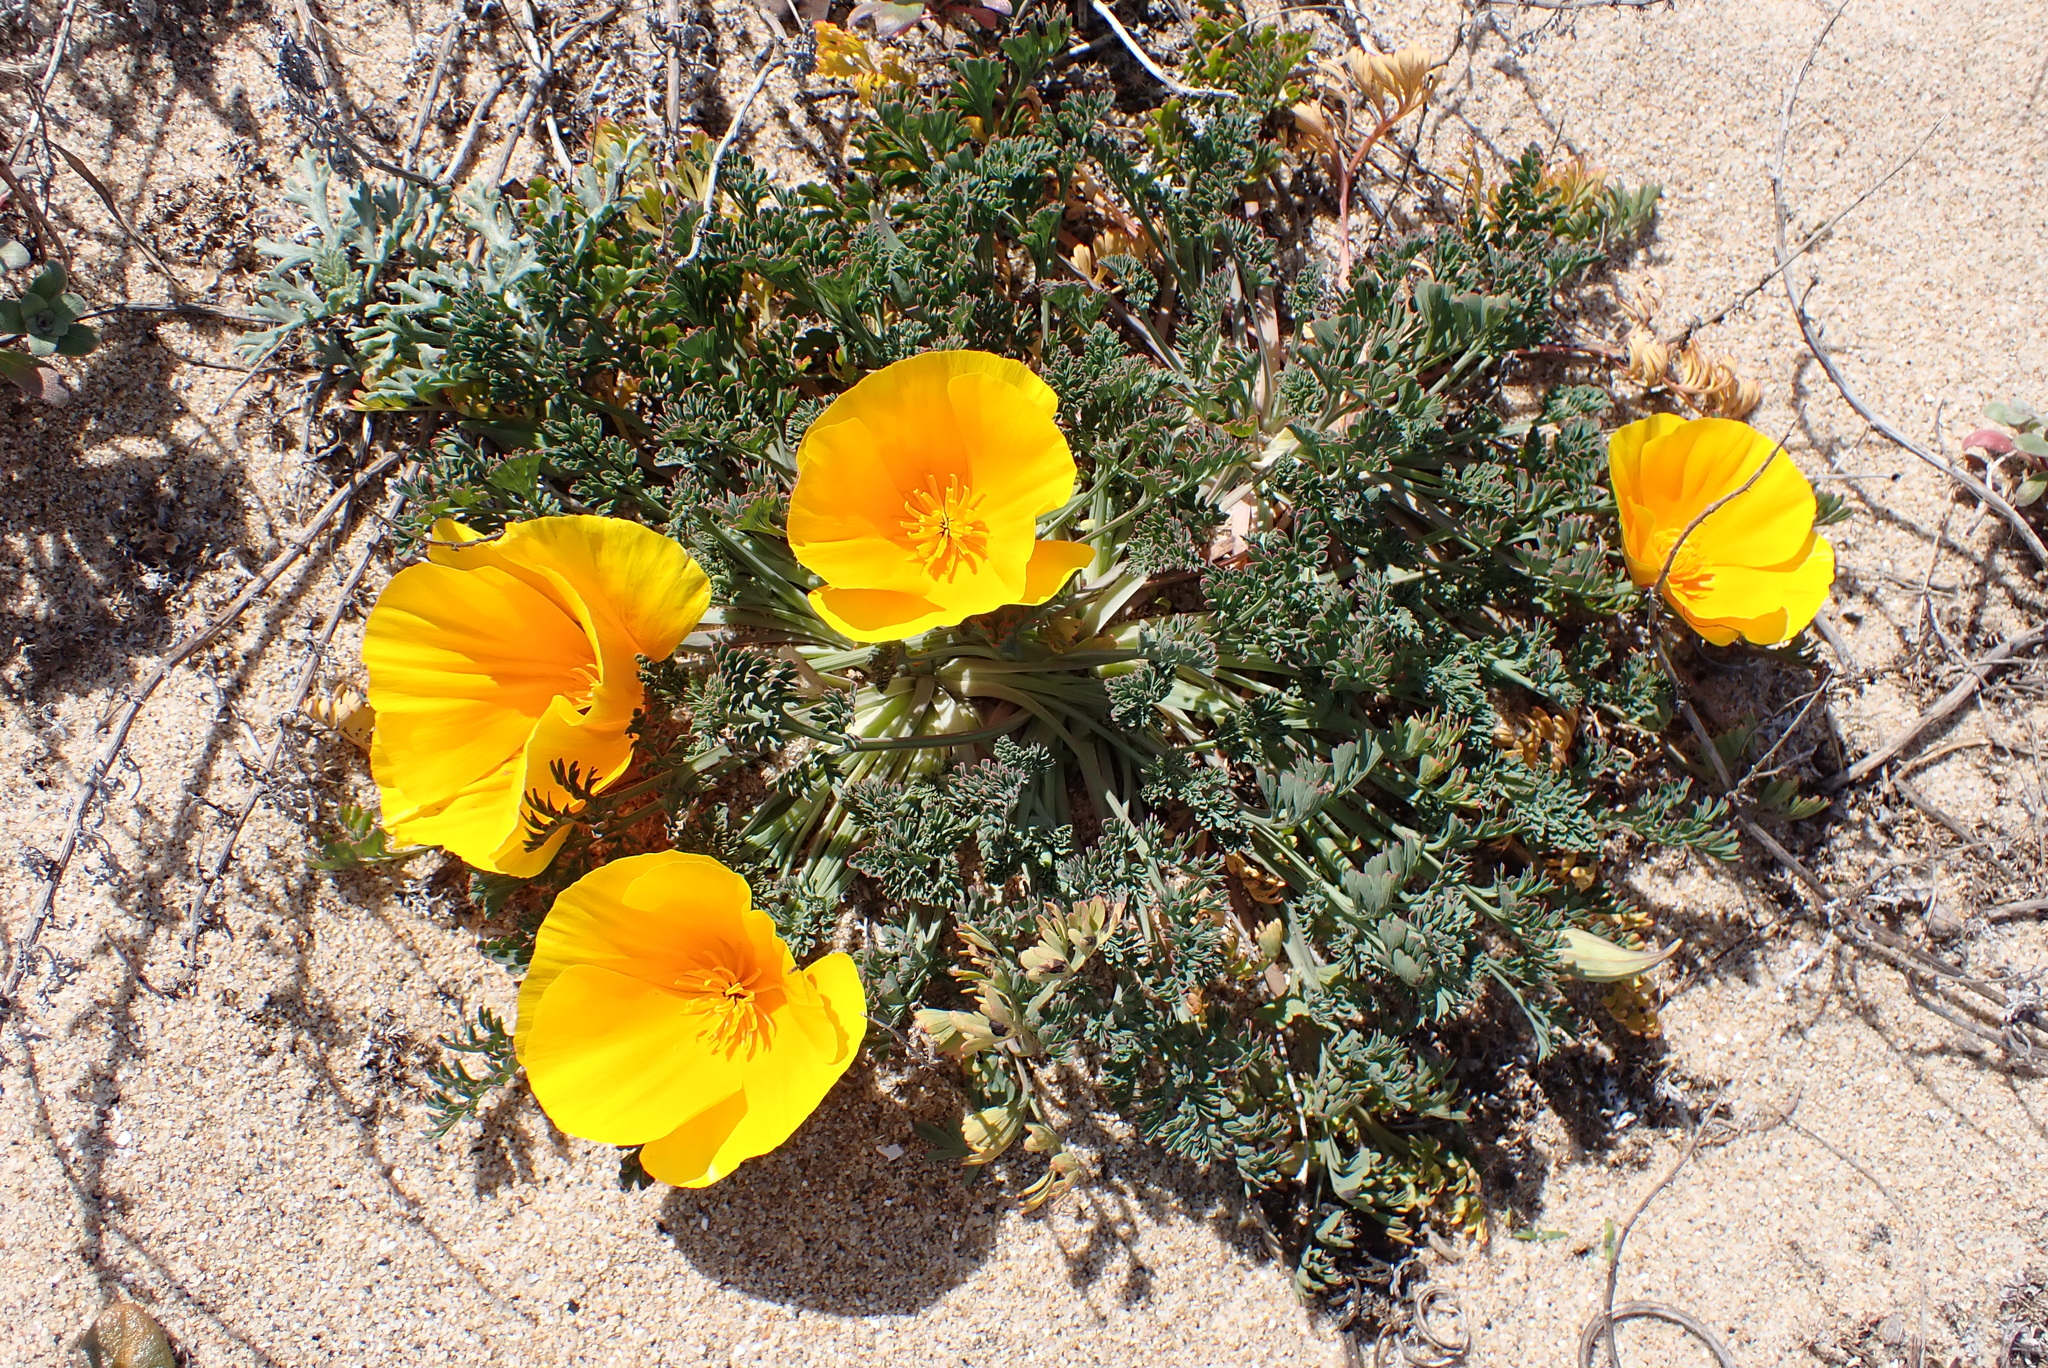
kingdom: Plantae
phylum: Tracheophyta
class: Magnoliopsida
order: Ranunculales
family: Papaveraceae
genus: Eschscholzia
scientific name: Eschscholzia californica
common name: California poppy
